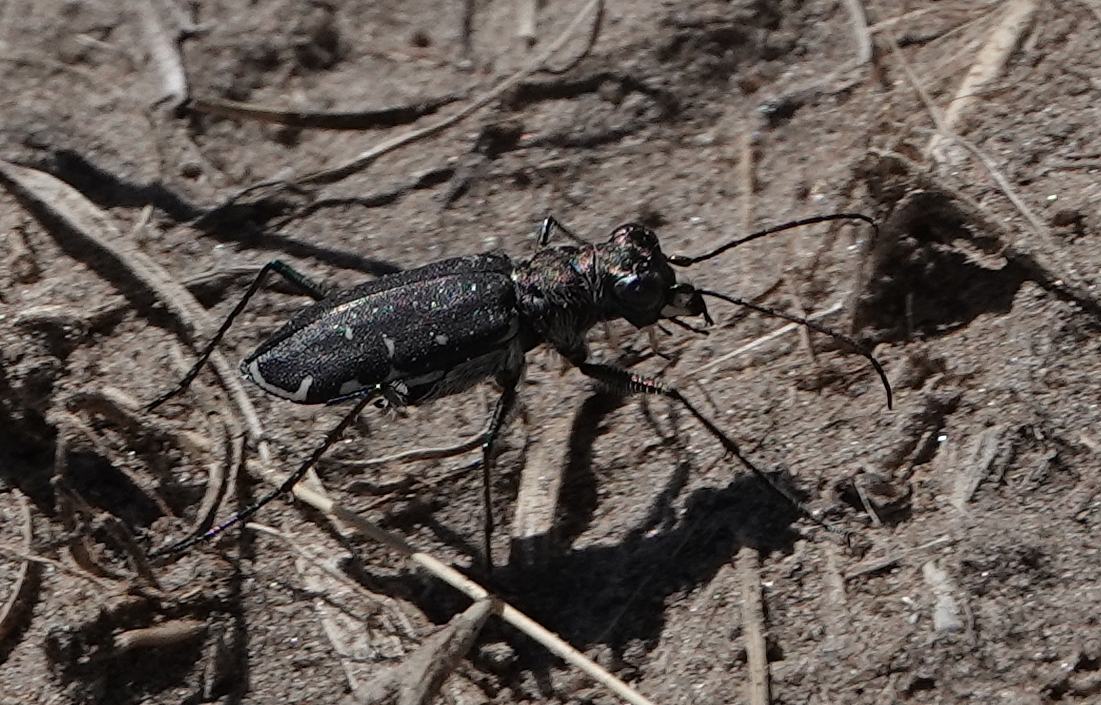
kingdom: Animalia
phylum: Arthropoda
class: Insecta
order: Coleoptera
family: Carabidae
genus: Cicindela
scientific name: Cicindela punctulata
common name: Punctured tiger beetle
